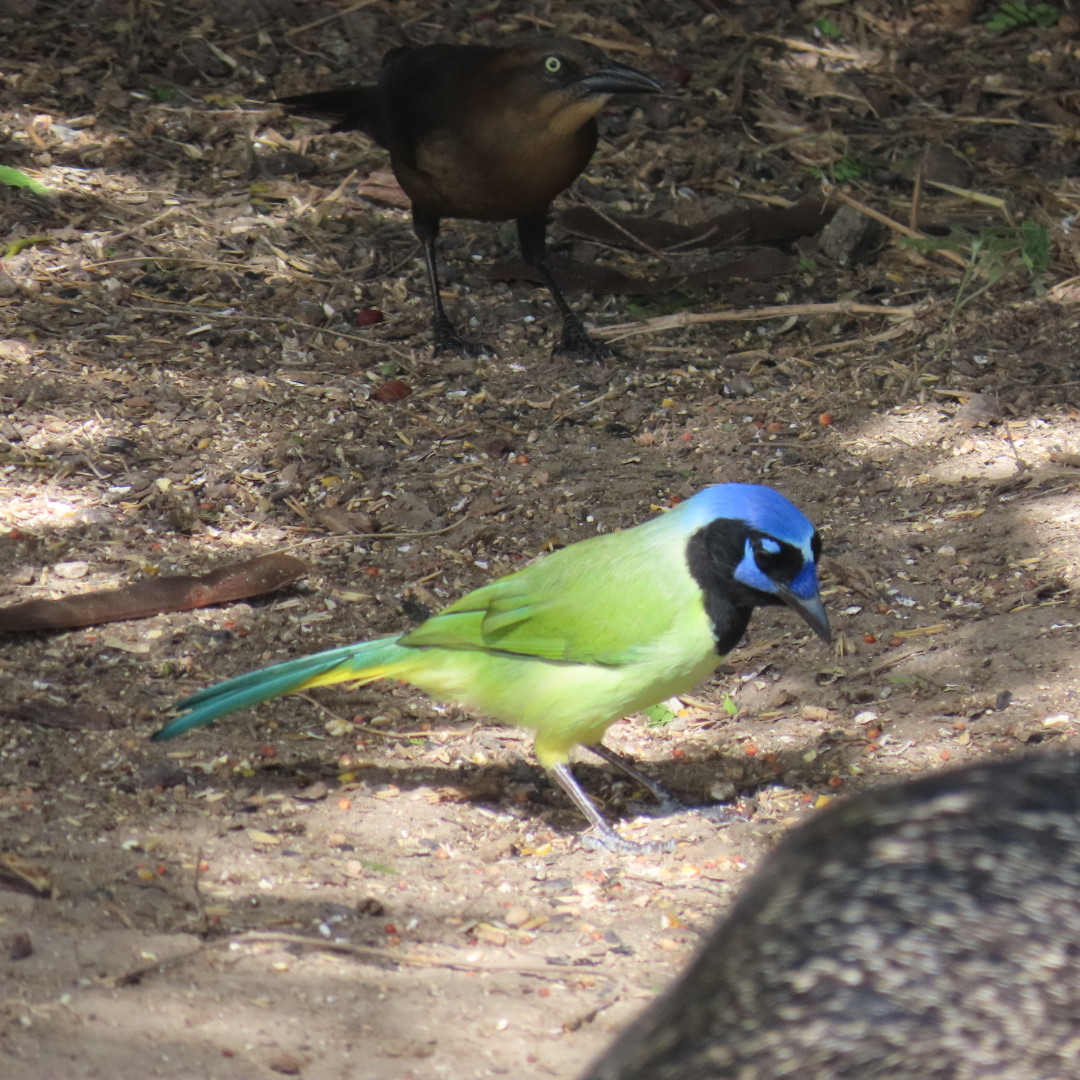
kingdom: Animalia
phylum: Chordata
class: Aves
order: Passeriformes
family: Corvidae
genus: Cyanocorax
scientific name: Cyanocorax yncas
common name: Green jay
